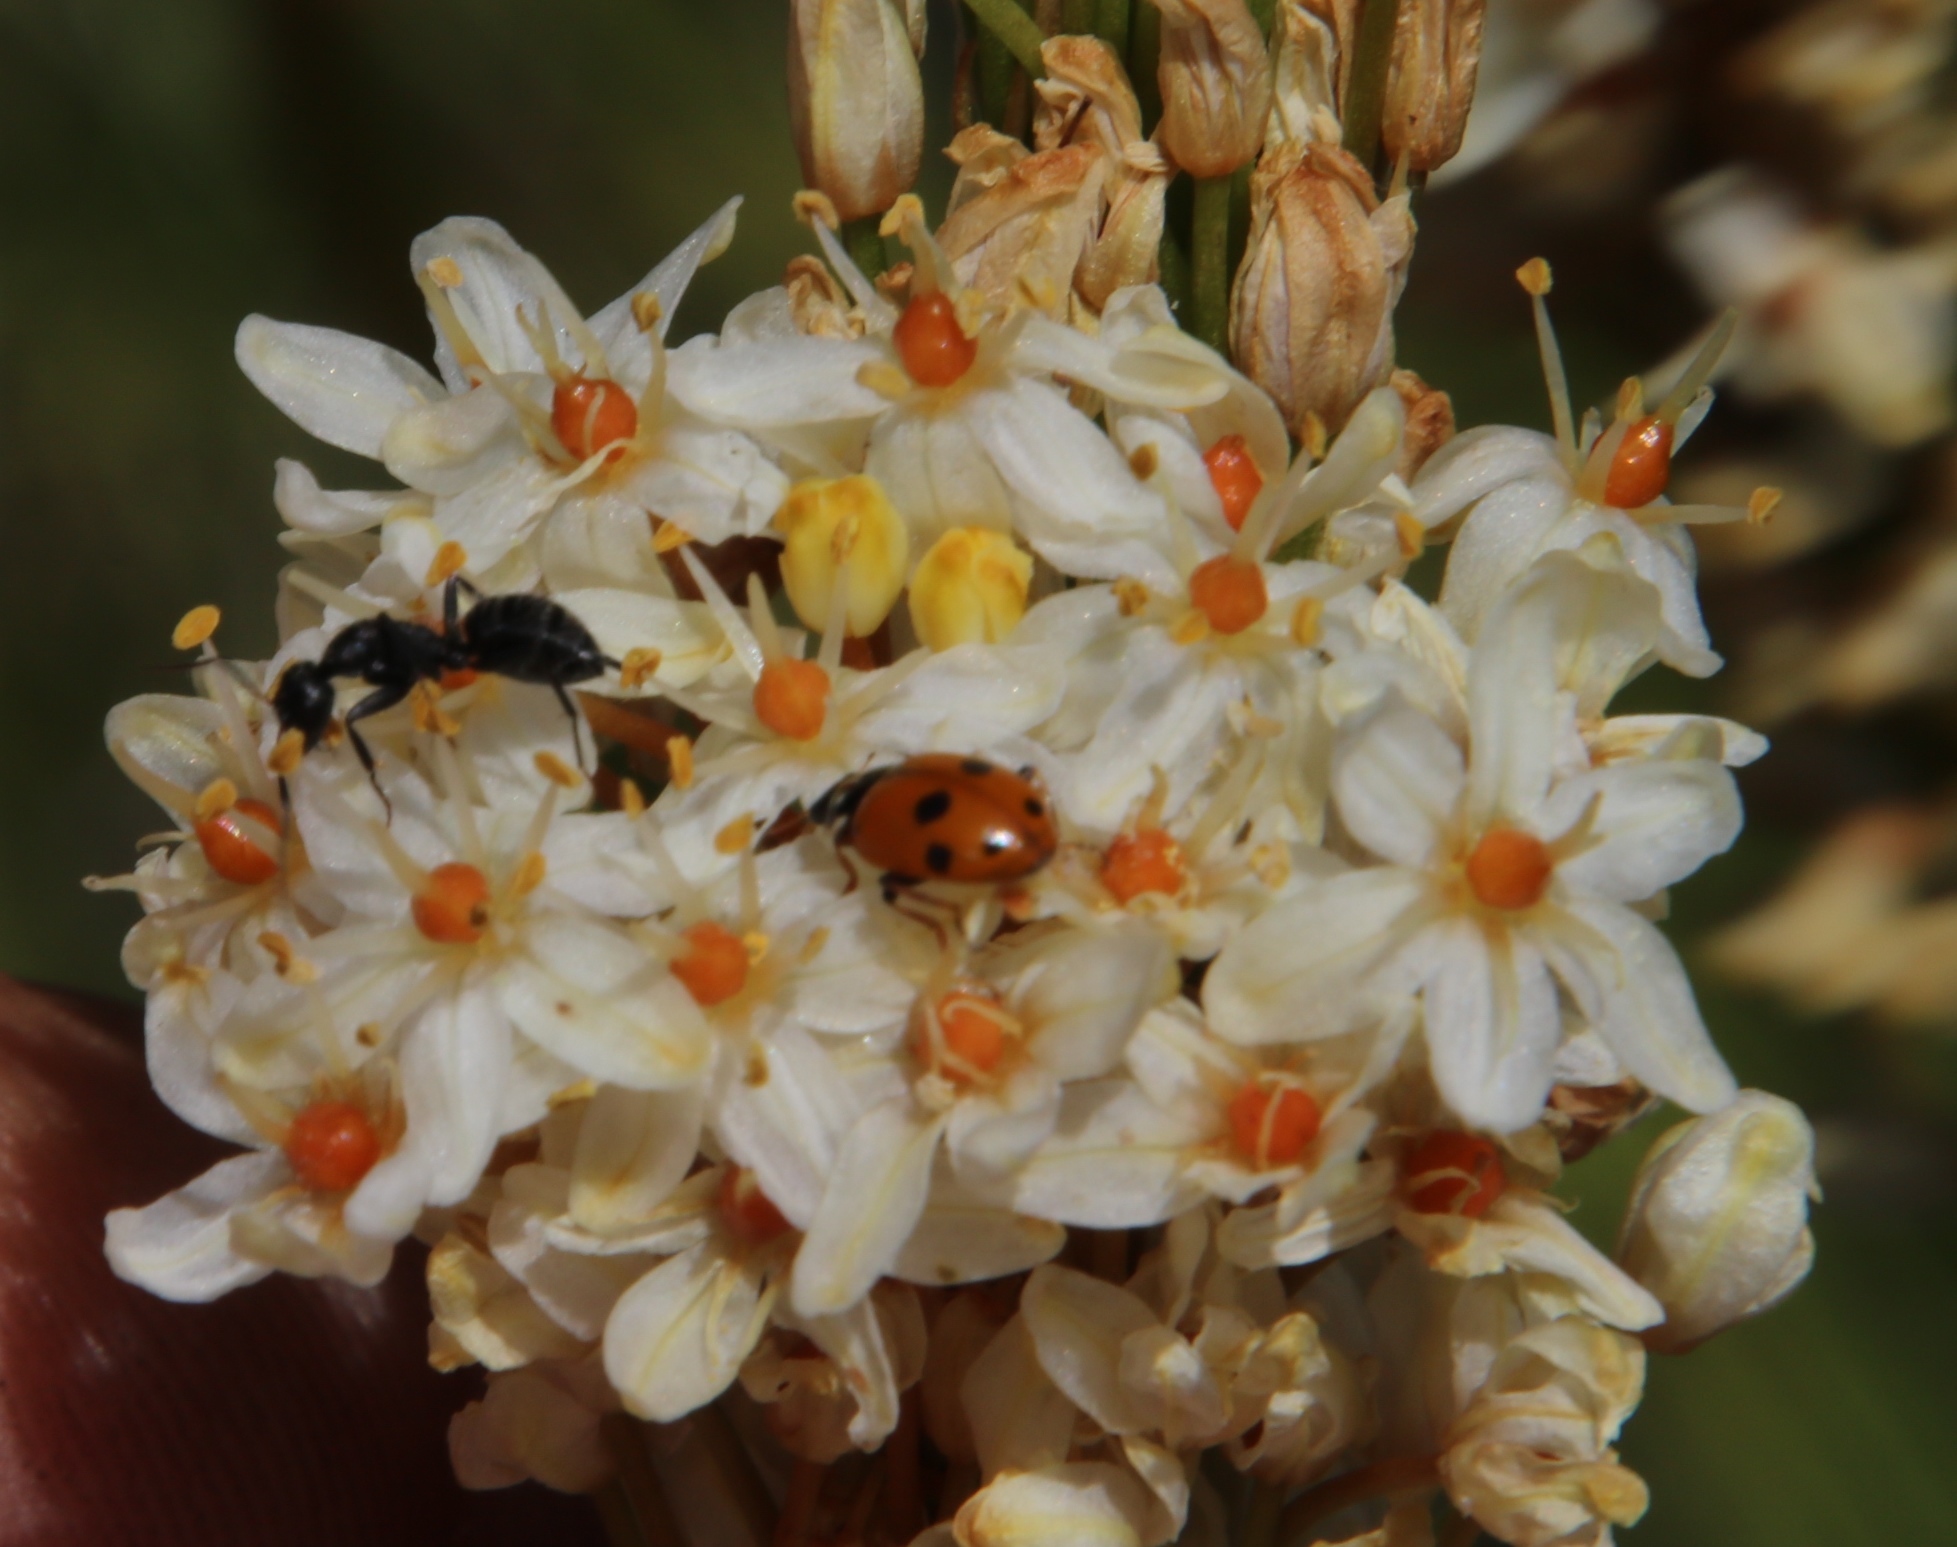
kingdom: Animalia
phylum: Arthropoda
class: Insecta
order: Coleoptera
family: Coccinellidae
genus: Hippodamia
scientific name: Hippodamia variegata
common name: Ladybird beetle
